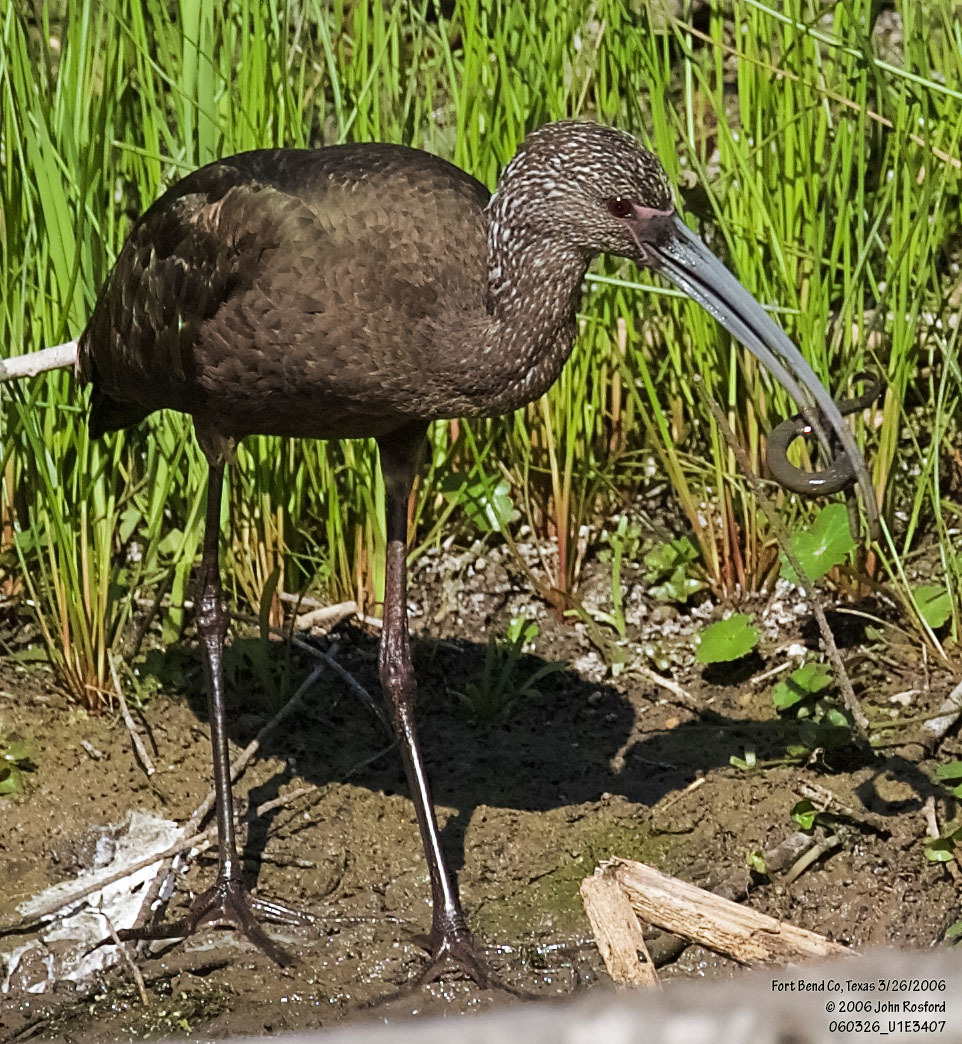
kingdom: Animalia
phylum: Chordata
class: Aves
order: Pelecaniformes
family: Threskiornithidae
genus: Plegadis
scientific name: Plegadis chihi
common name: White-faced ibis
